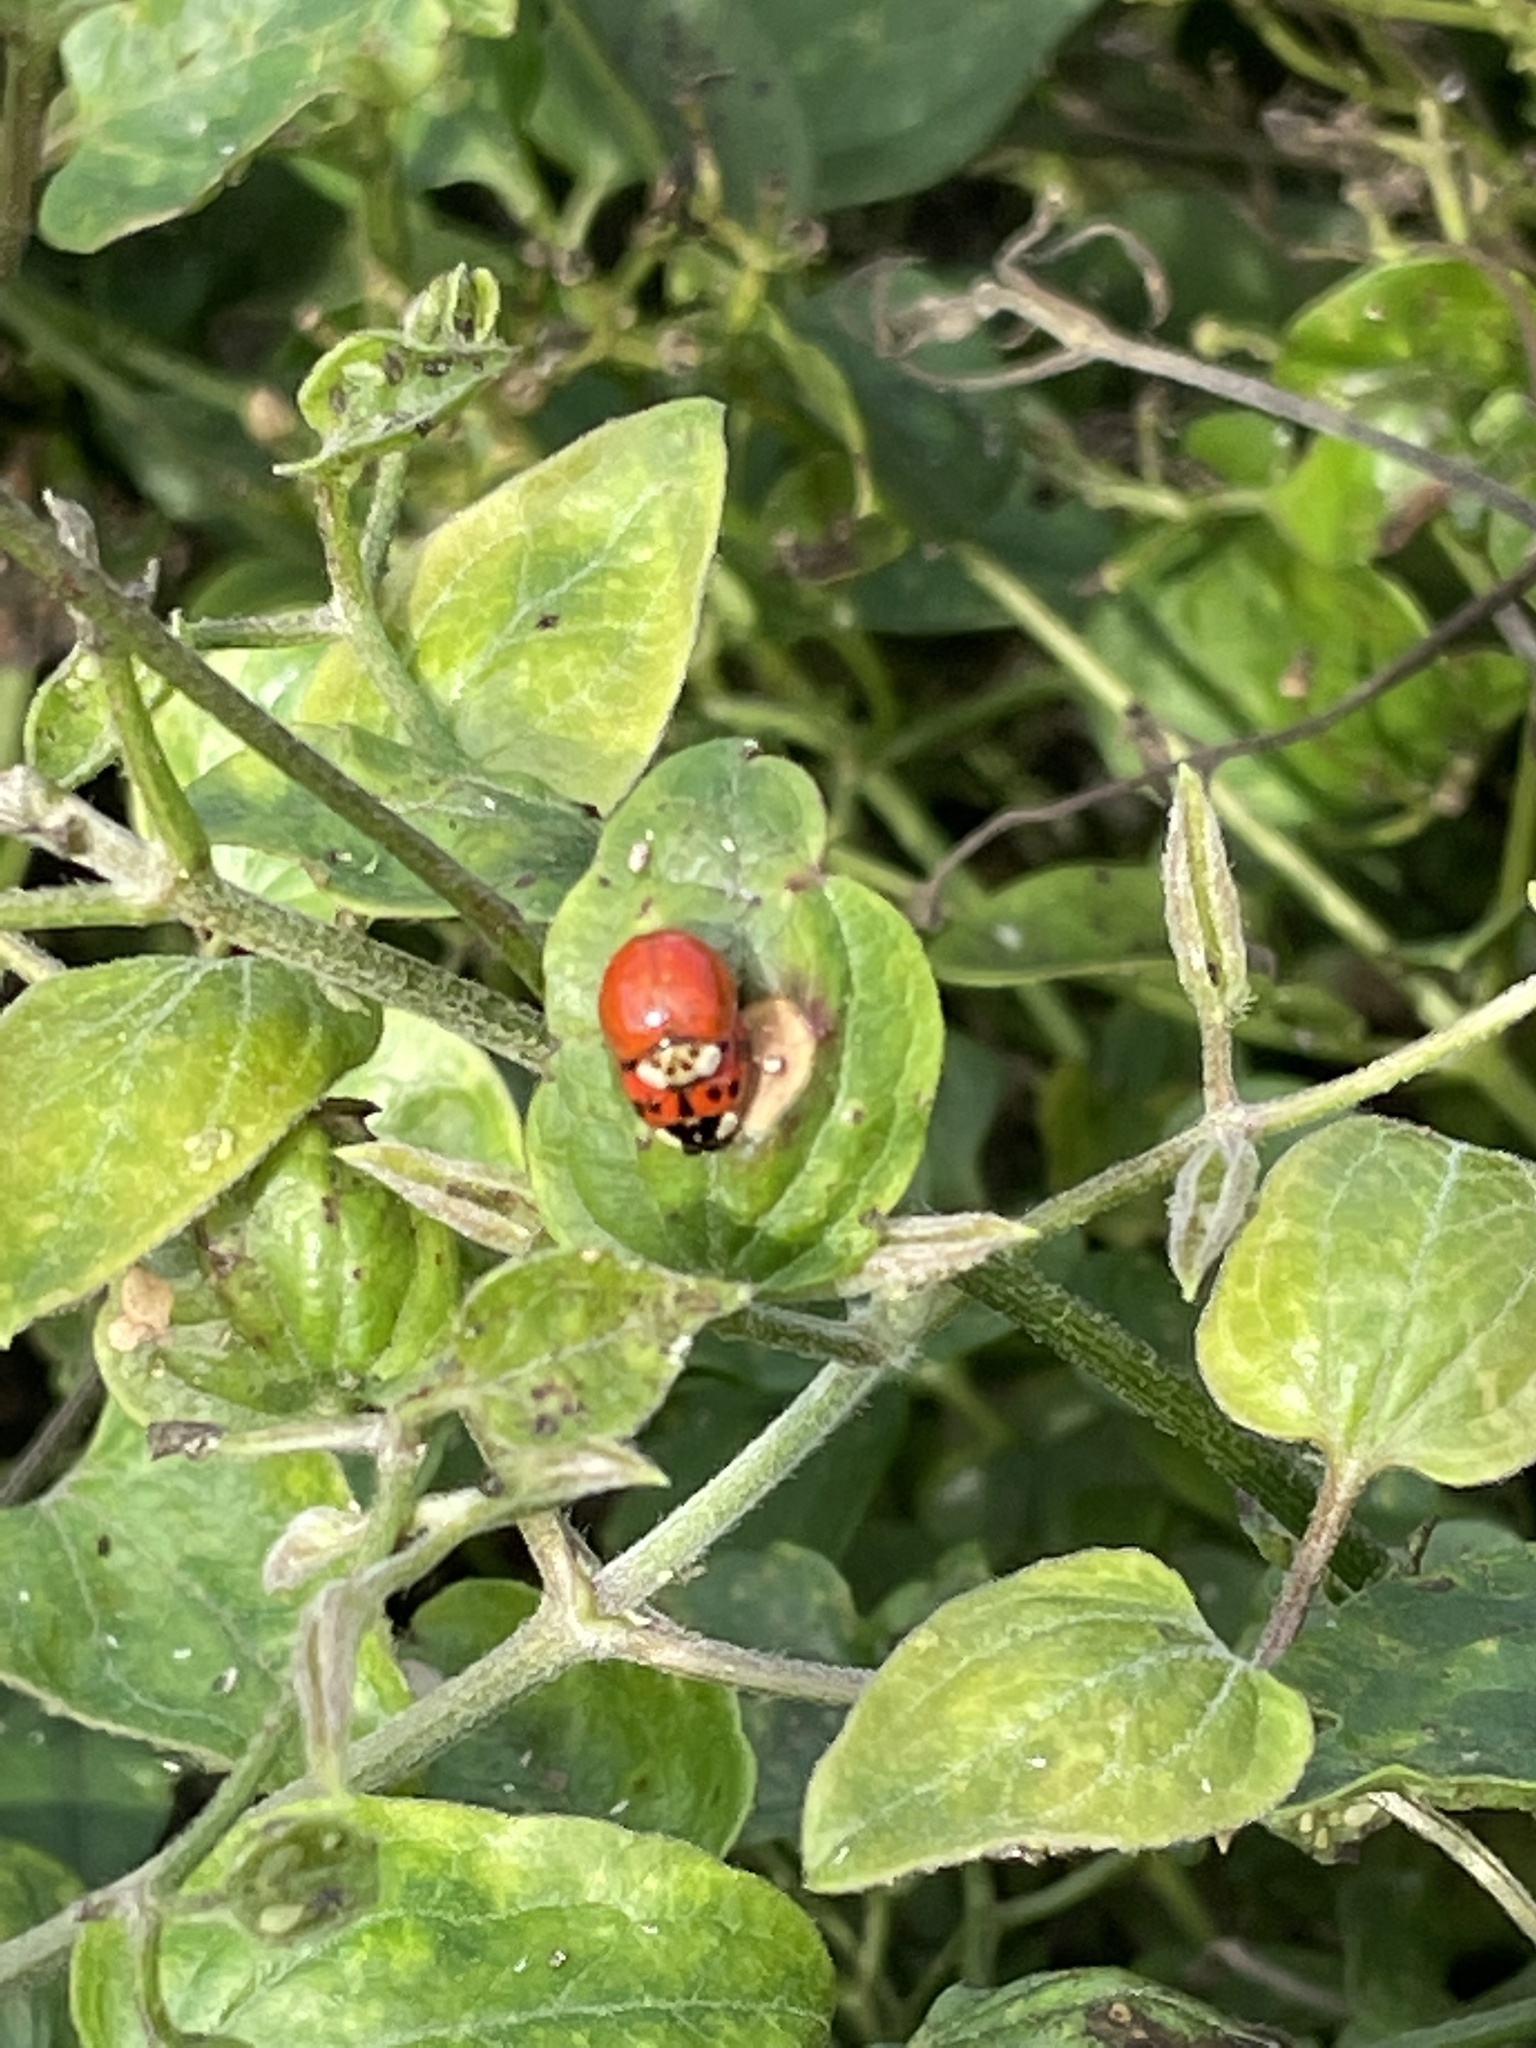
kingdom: Animalia
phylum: Arthropoda
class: Insecta
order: Coleoptera
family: Coccinellidae
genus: Harmonia
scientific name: Harmonia axyridis
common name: Harlequin ladybird
